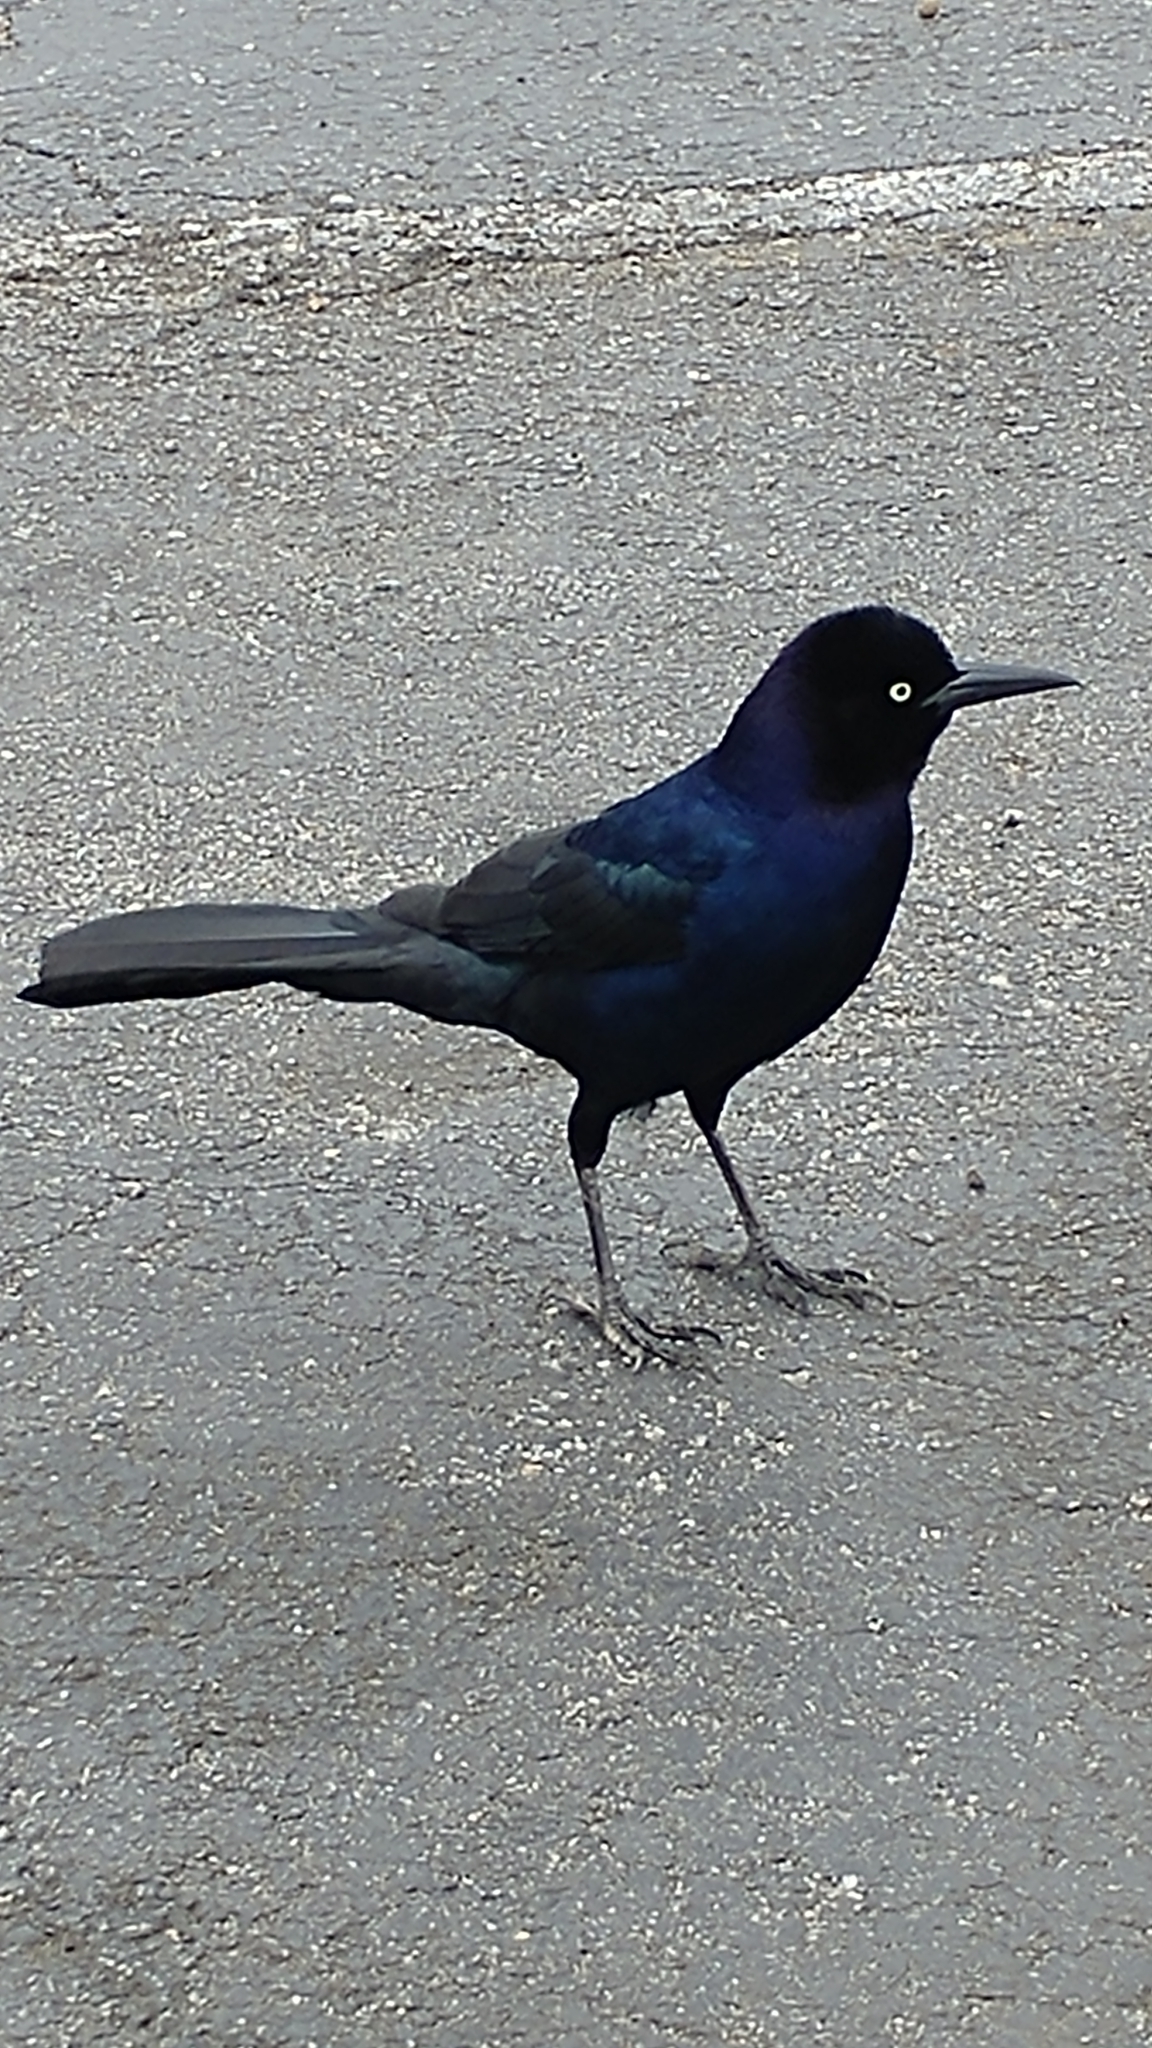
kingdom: Animalia
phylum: Chordata
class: Aves
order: Passeriformes
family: Icteridae
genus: Quiscalus
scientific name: Quiscalus major
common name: Boat-tailed grackle
